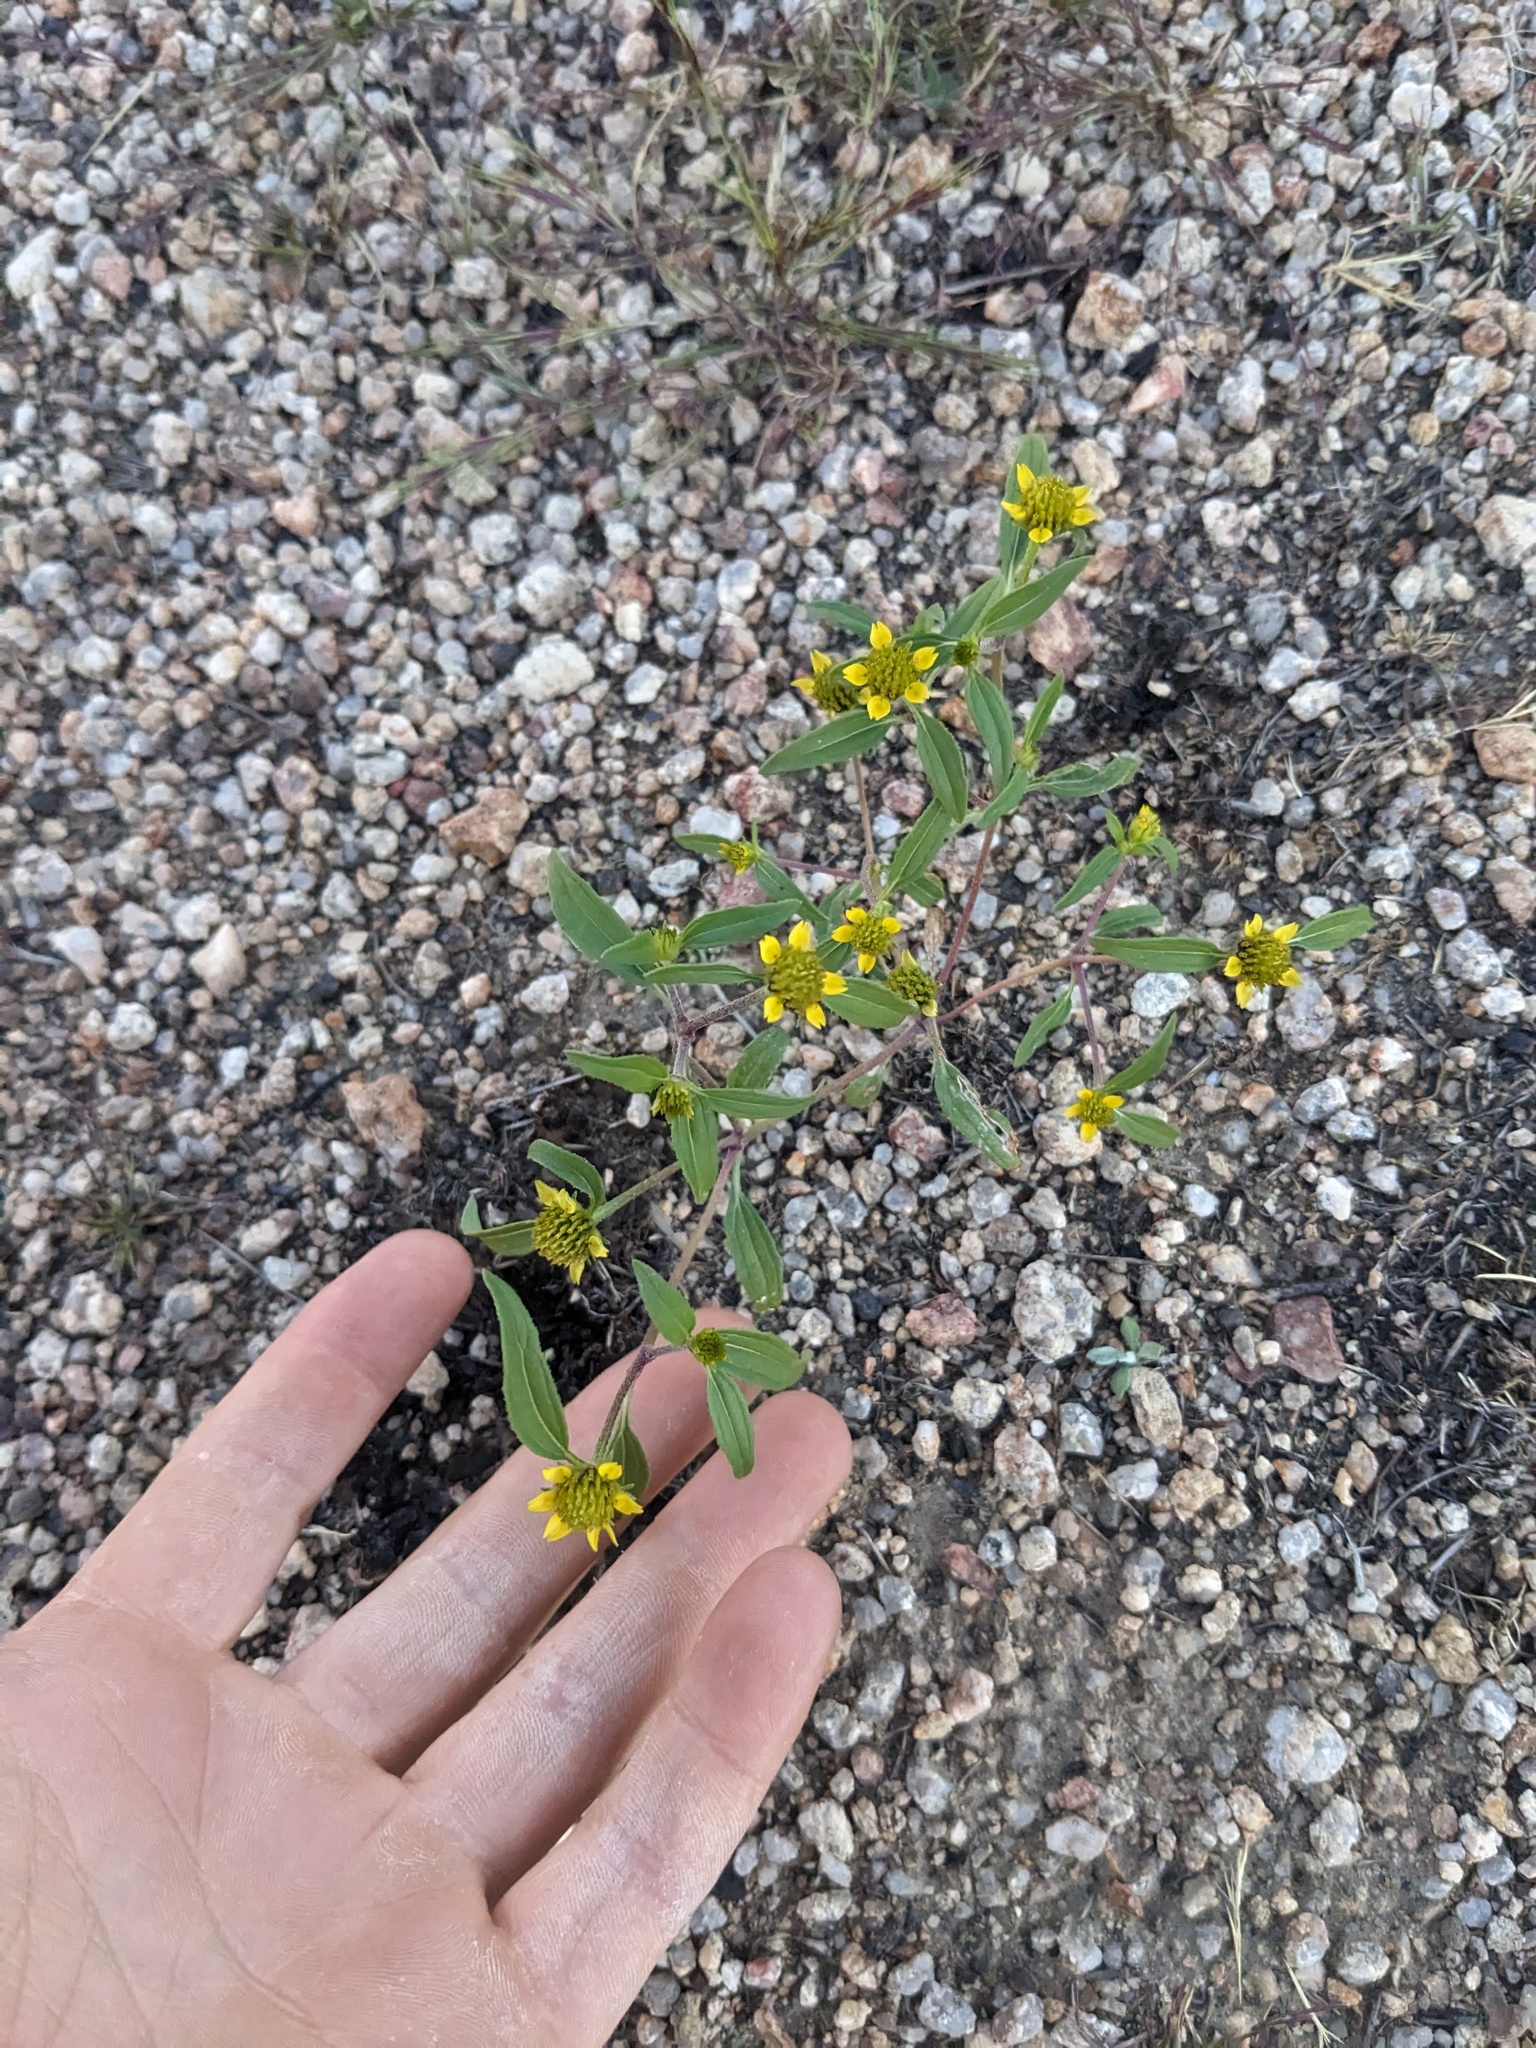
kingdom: Plantae
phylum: Tracheophyta
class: Magnoliopsida
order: Asterales
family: Asteraceae
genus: Sanvitalia
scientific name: Sanvitalia abertii
